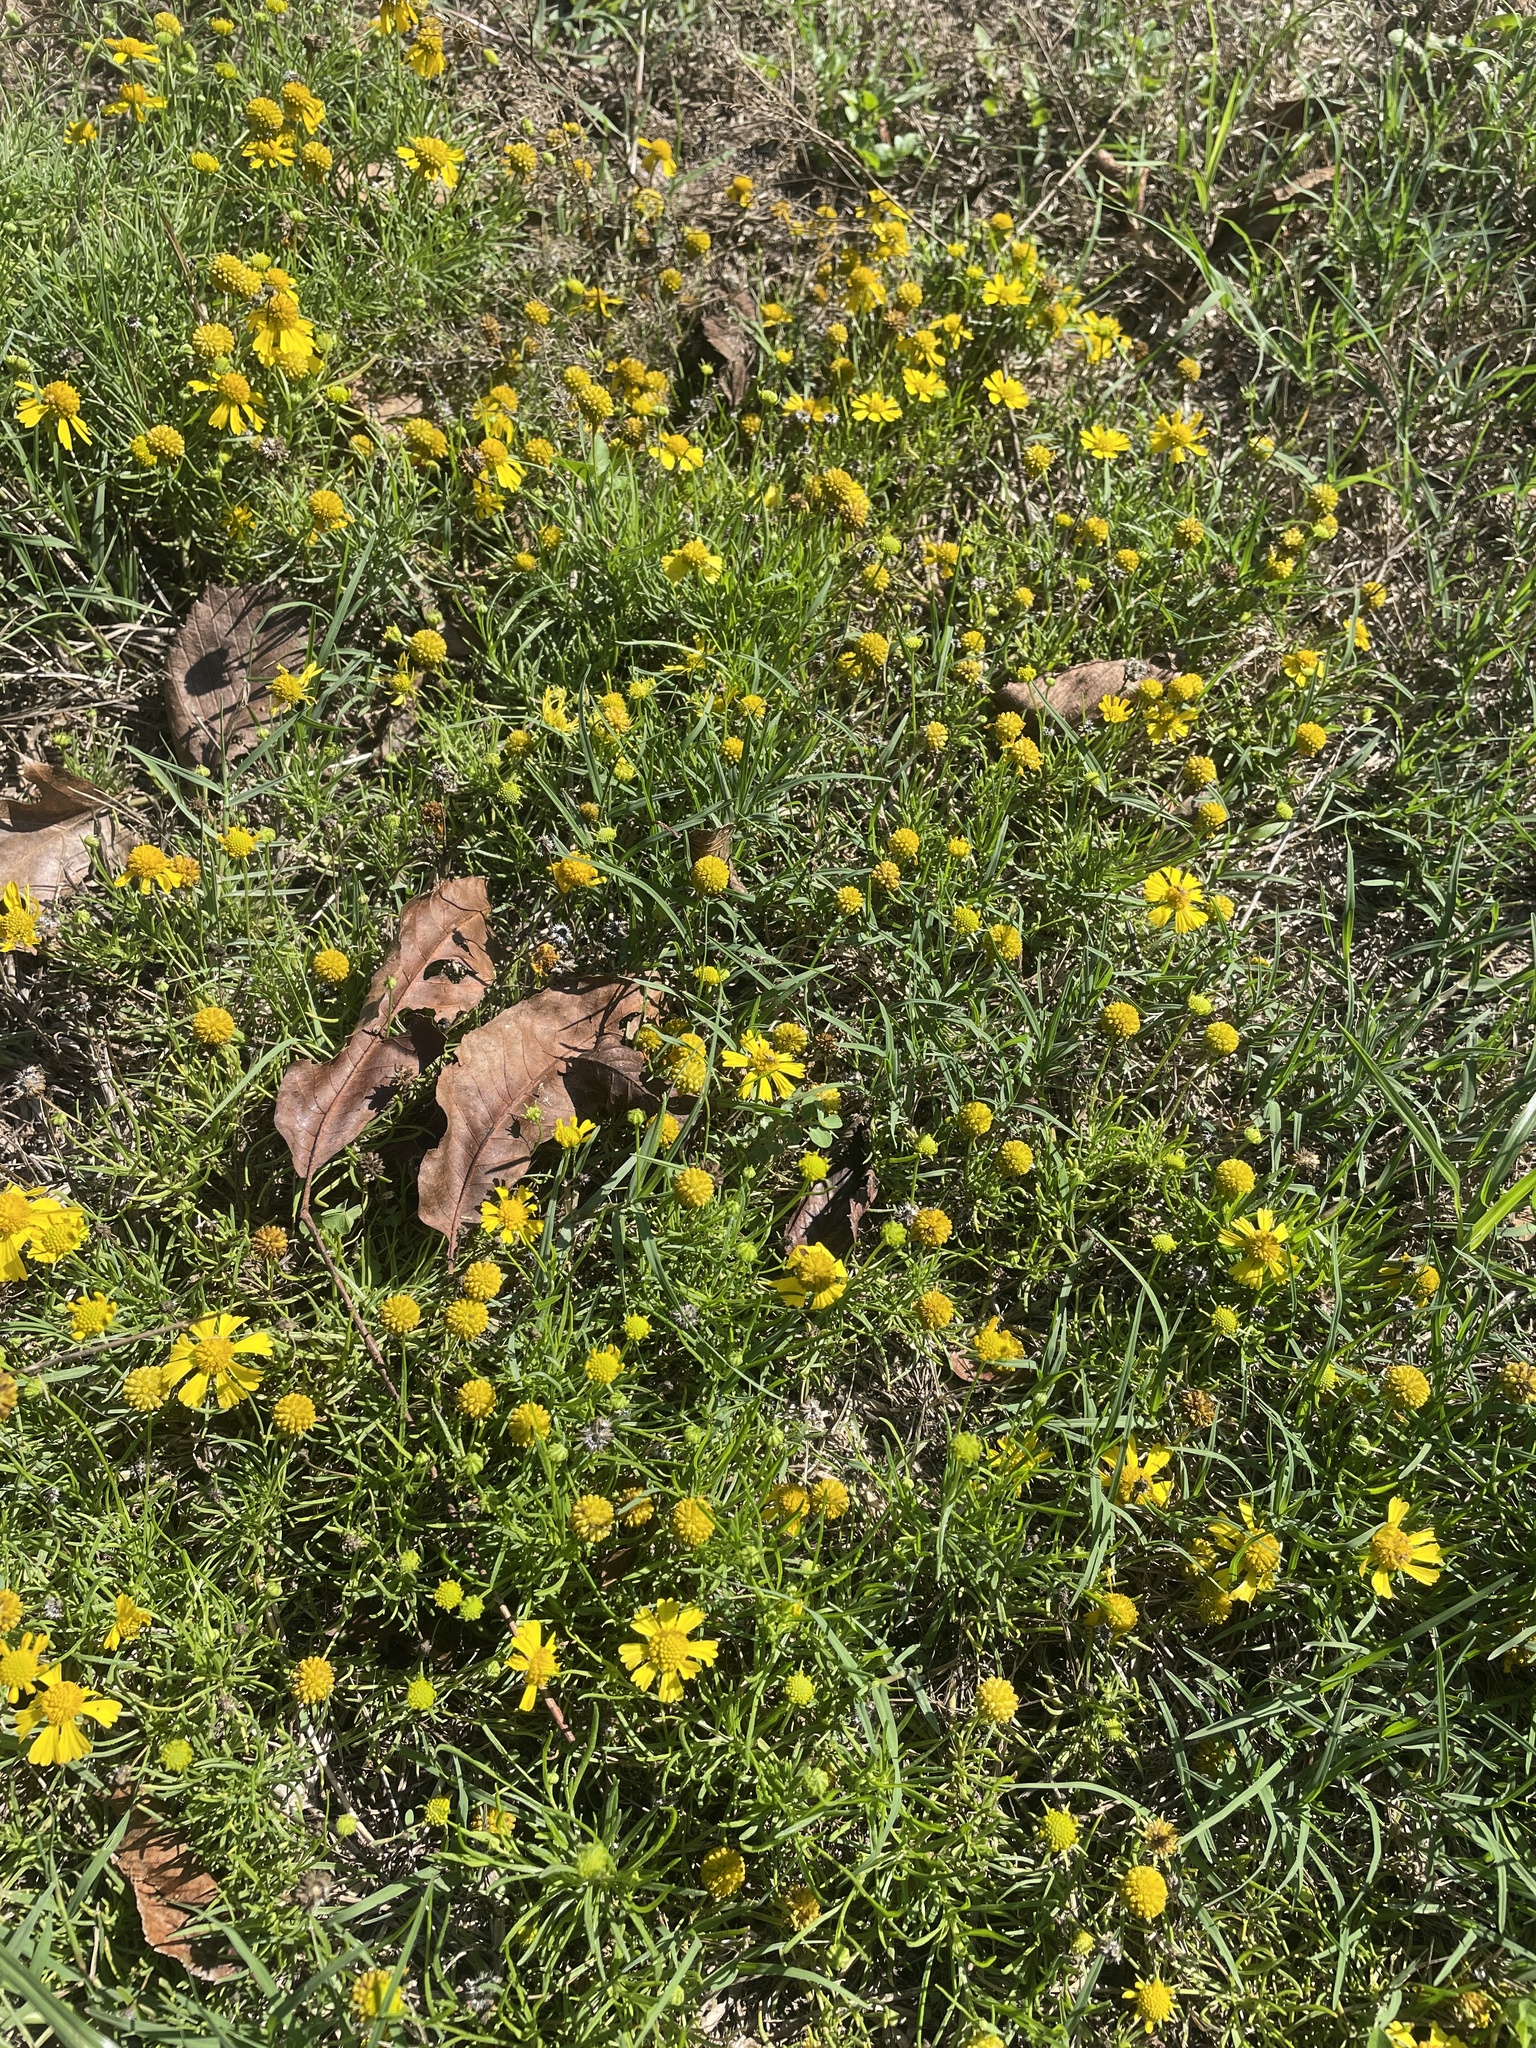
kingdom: Plantae
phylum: Tracheophyta
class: Magnoliopsida
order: Asterales
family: Asteraceae
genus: Helenium
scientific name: Helenium amarum
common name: Bitter sneezeweed
